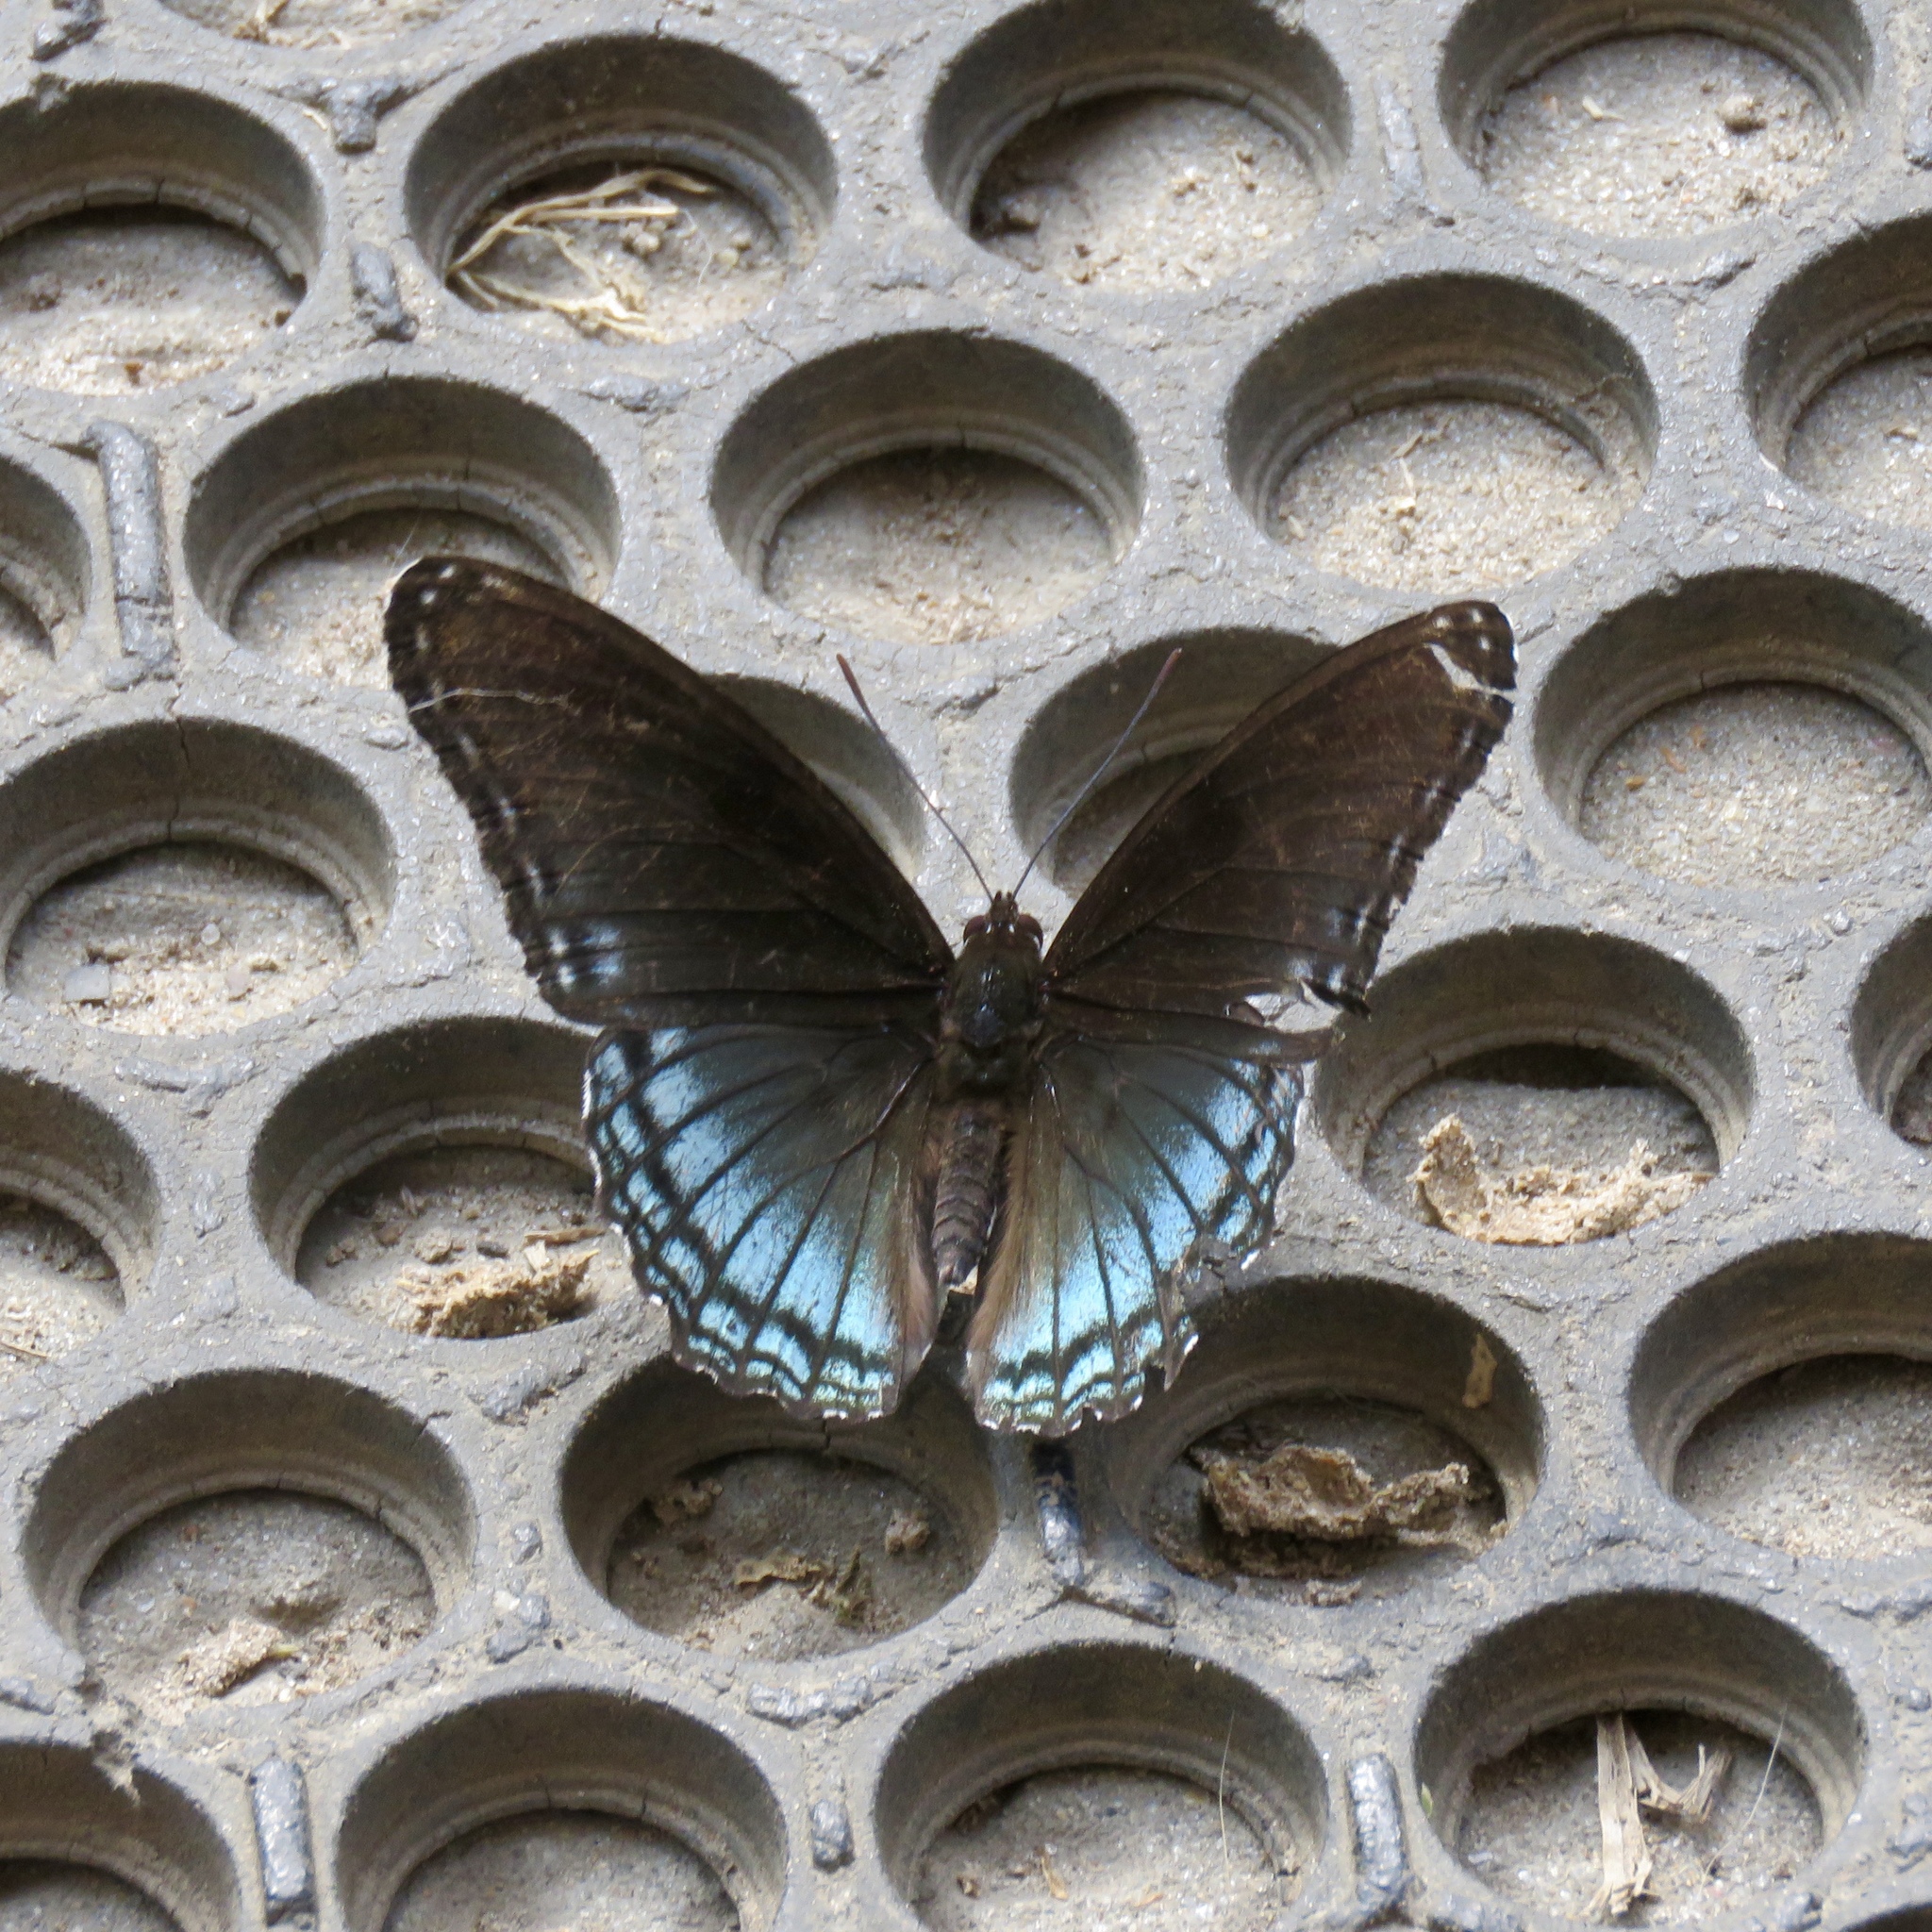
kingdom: Animalia
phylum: Arthropoda
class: Insecta
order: Lepidoptera
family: Nymphalidae
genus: Limenitis
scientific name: Limenitis arthemis
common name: Red-spotted admiral
